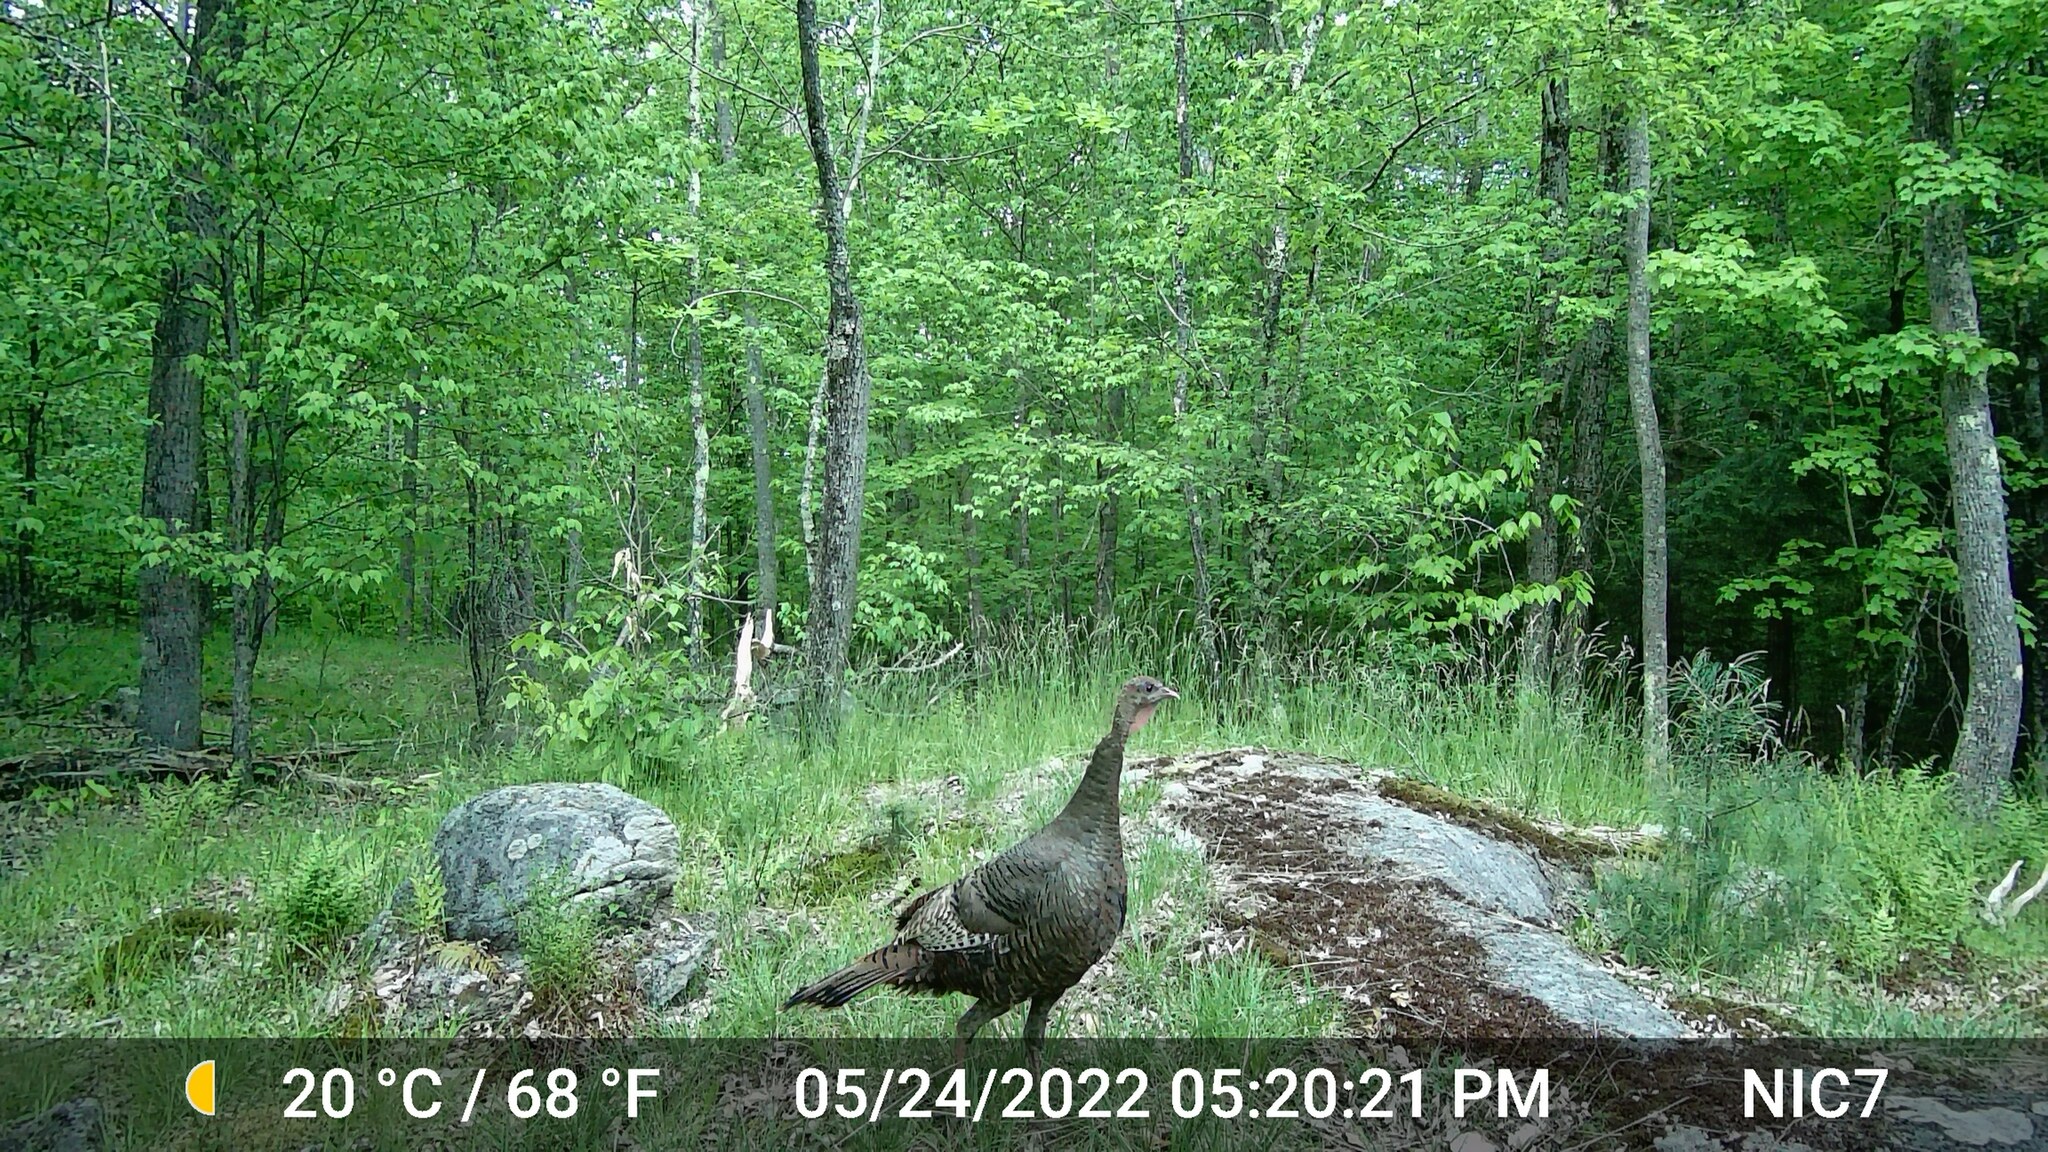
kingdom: Animalia
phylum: Chordata
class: Aves
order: Galliformes
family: Phasianidae
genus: Meleagris
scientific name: Meleagris gallopavo
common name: Wild turkey
